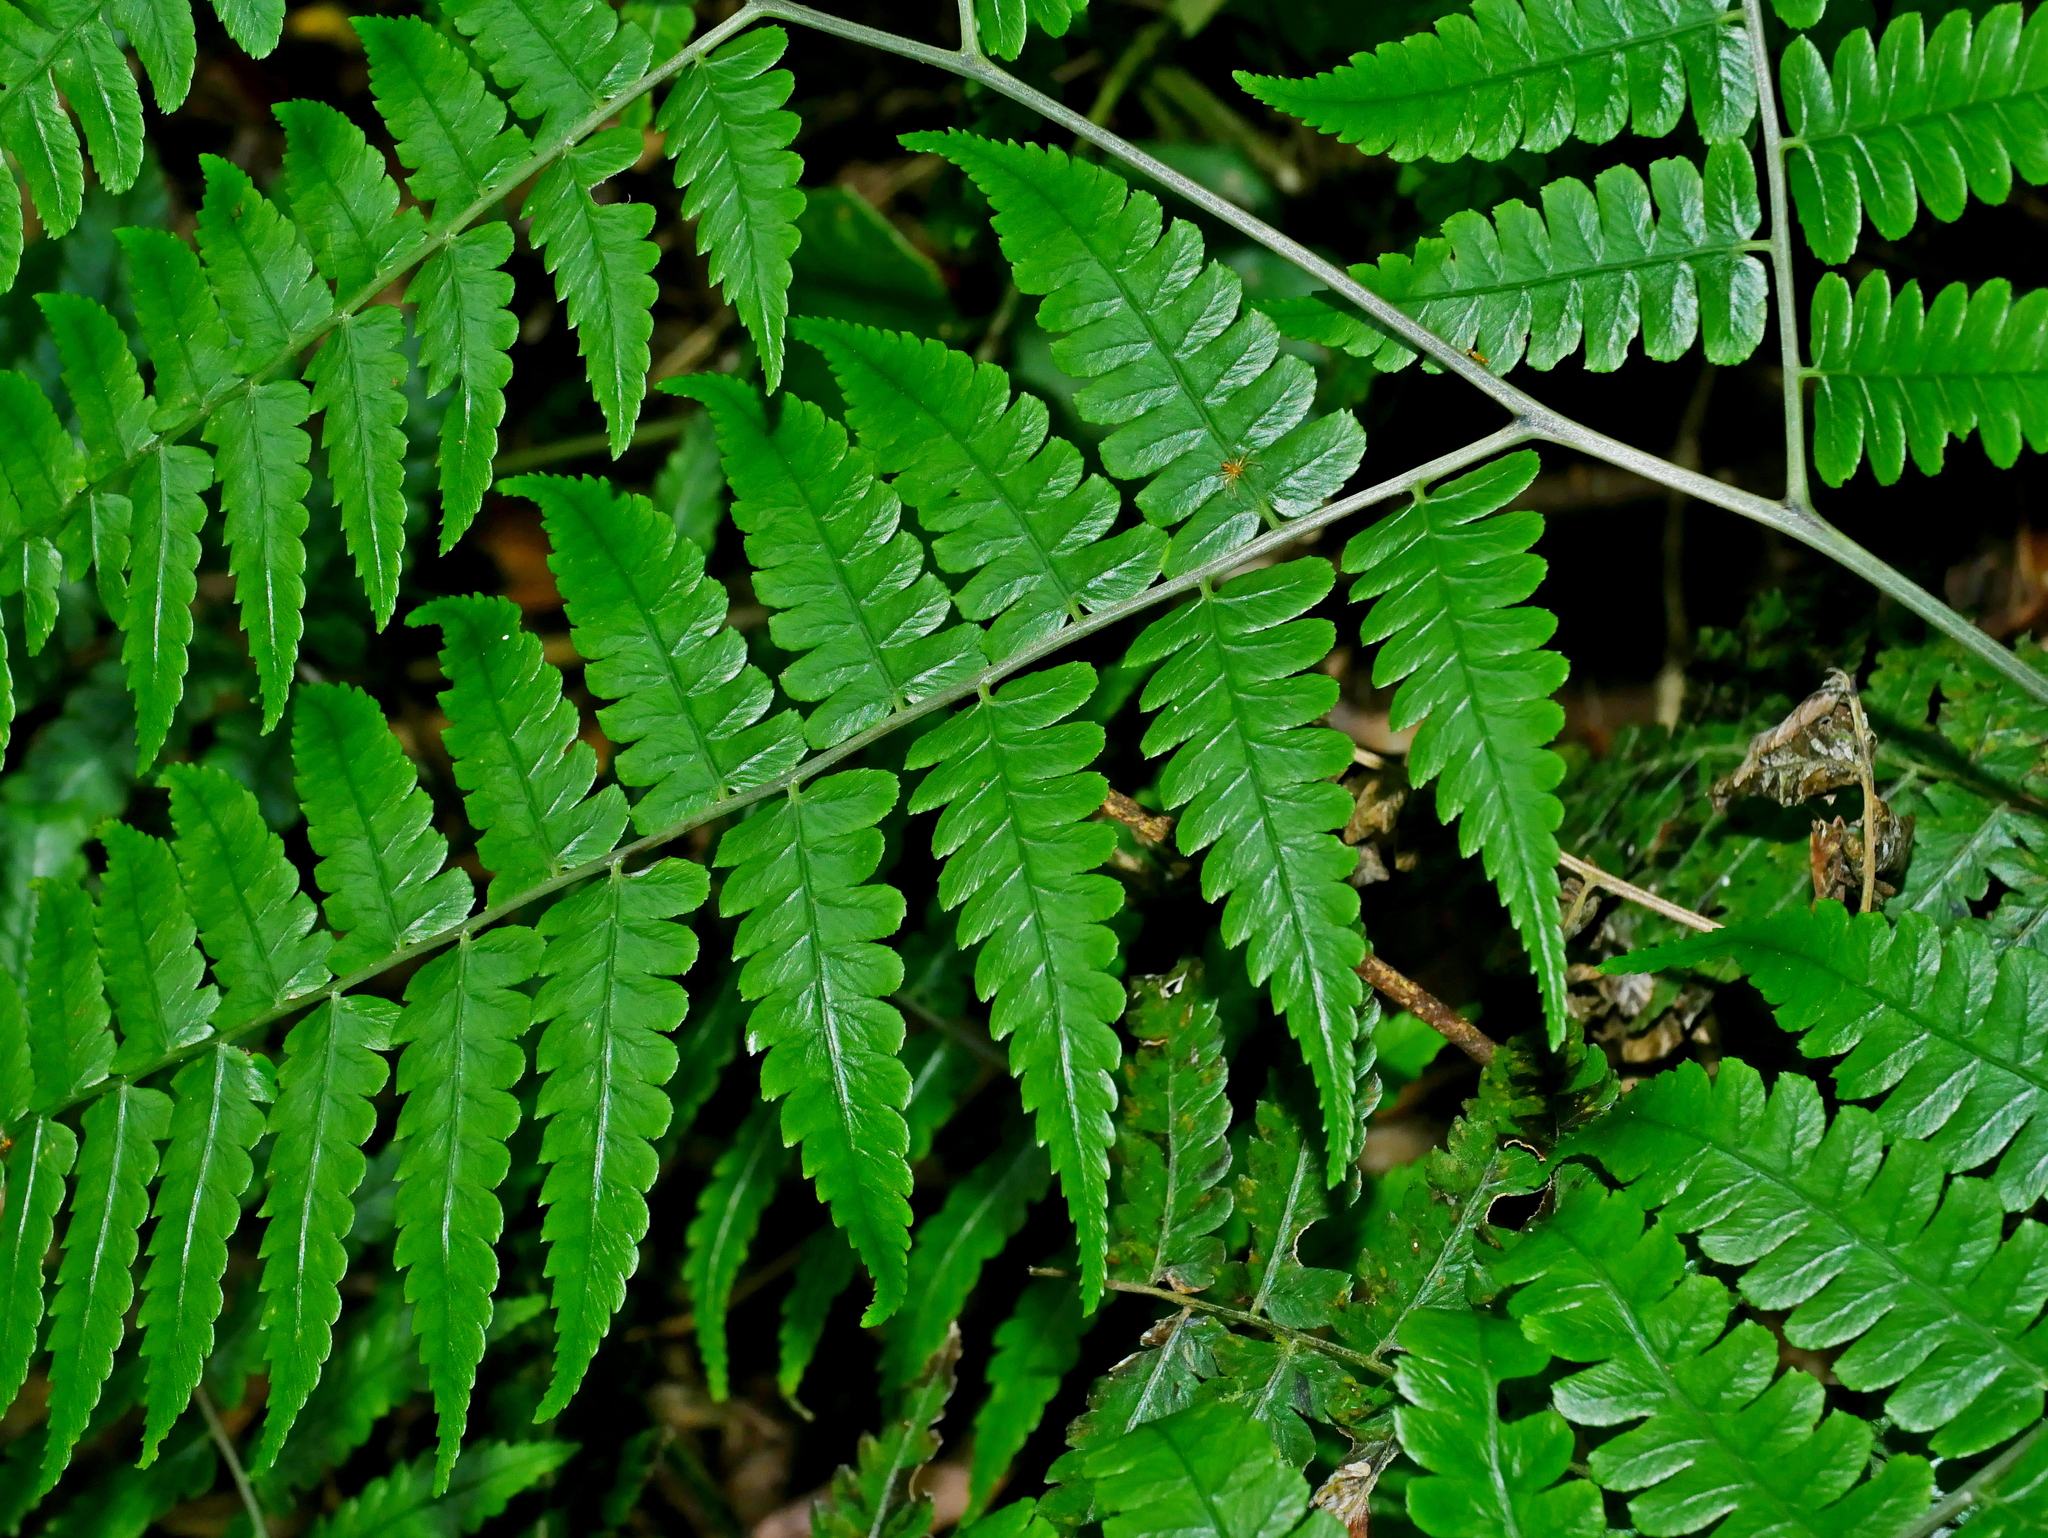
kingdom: Plantae
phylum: Tracheophyta
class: Polypodiopsida
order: Polypodiales
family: Athyriaceae
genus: Diplazium
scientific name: Diplazium okinawaense
